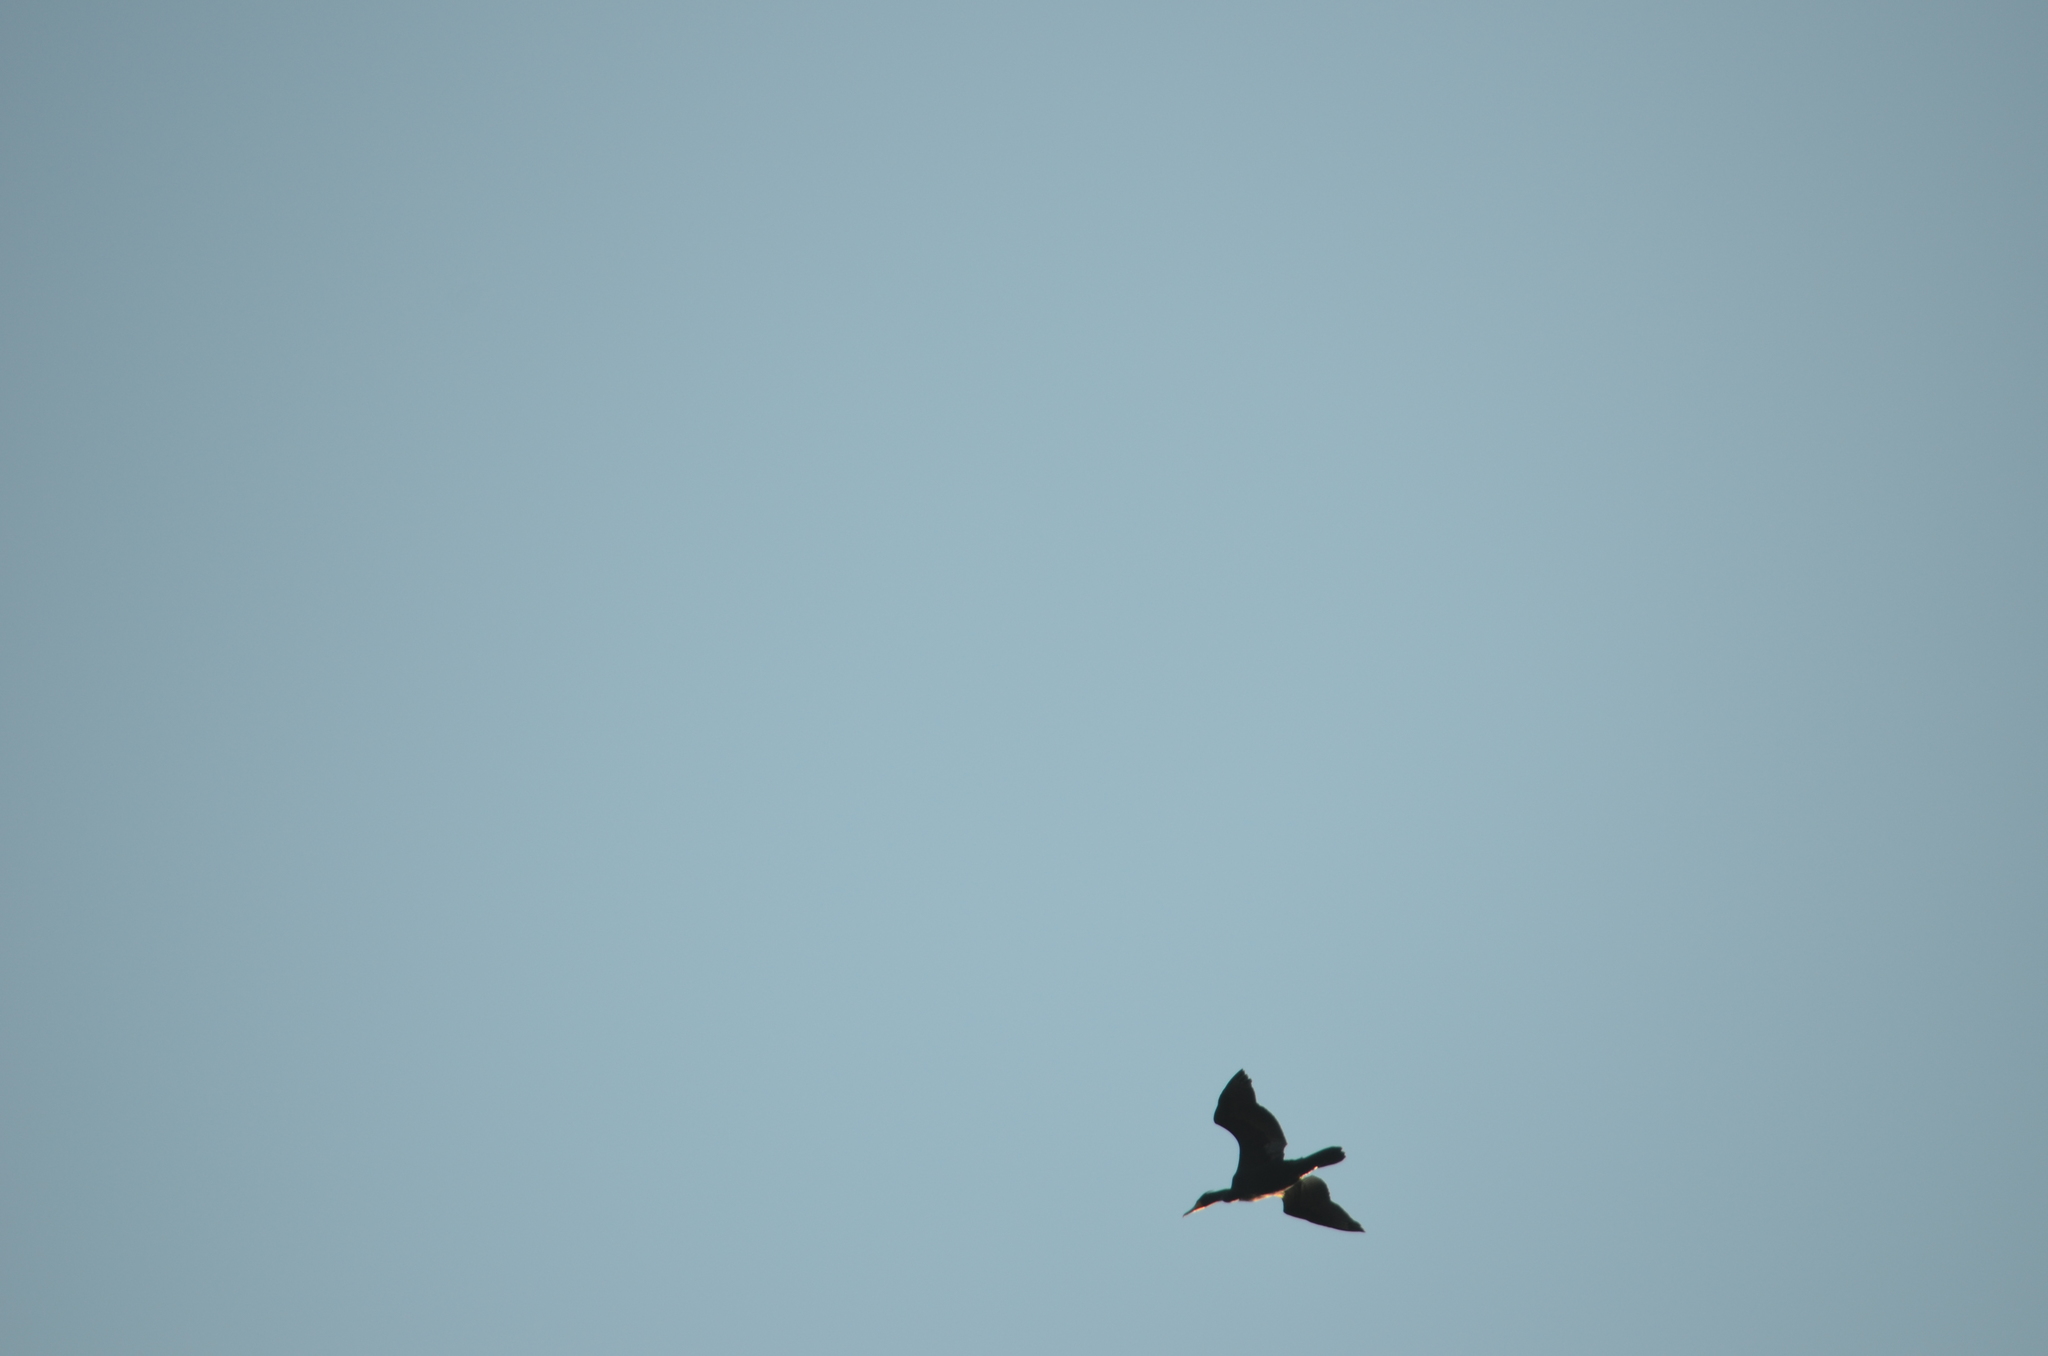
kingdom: Animalia
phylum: Chordata
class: Aves
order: Suliformes
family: Phalacrocoracidae
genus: Phalacrocorax
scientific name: Phalacrocorax auritus
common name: Double-crested cormorant
